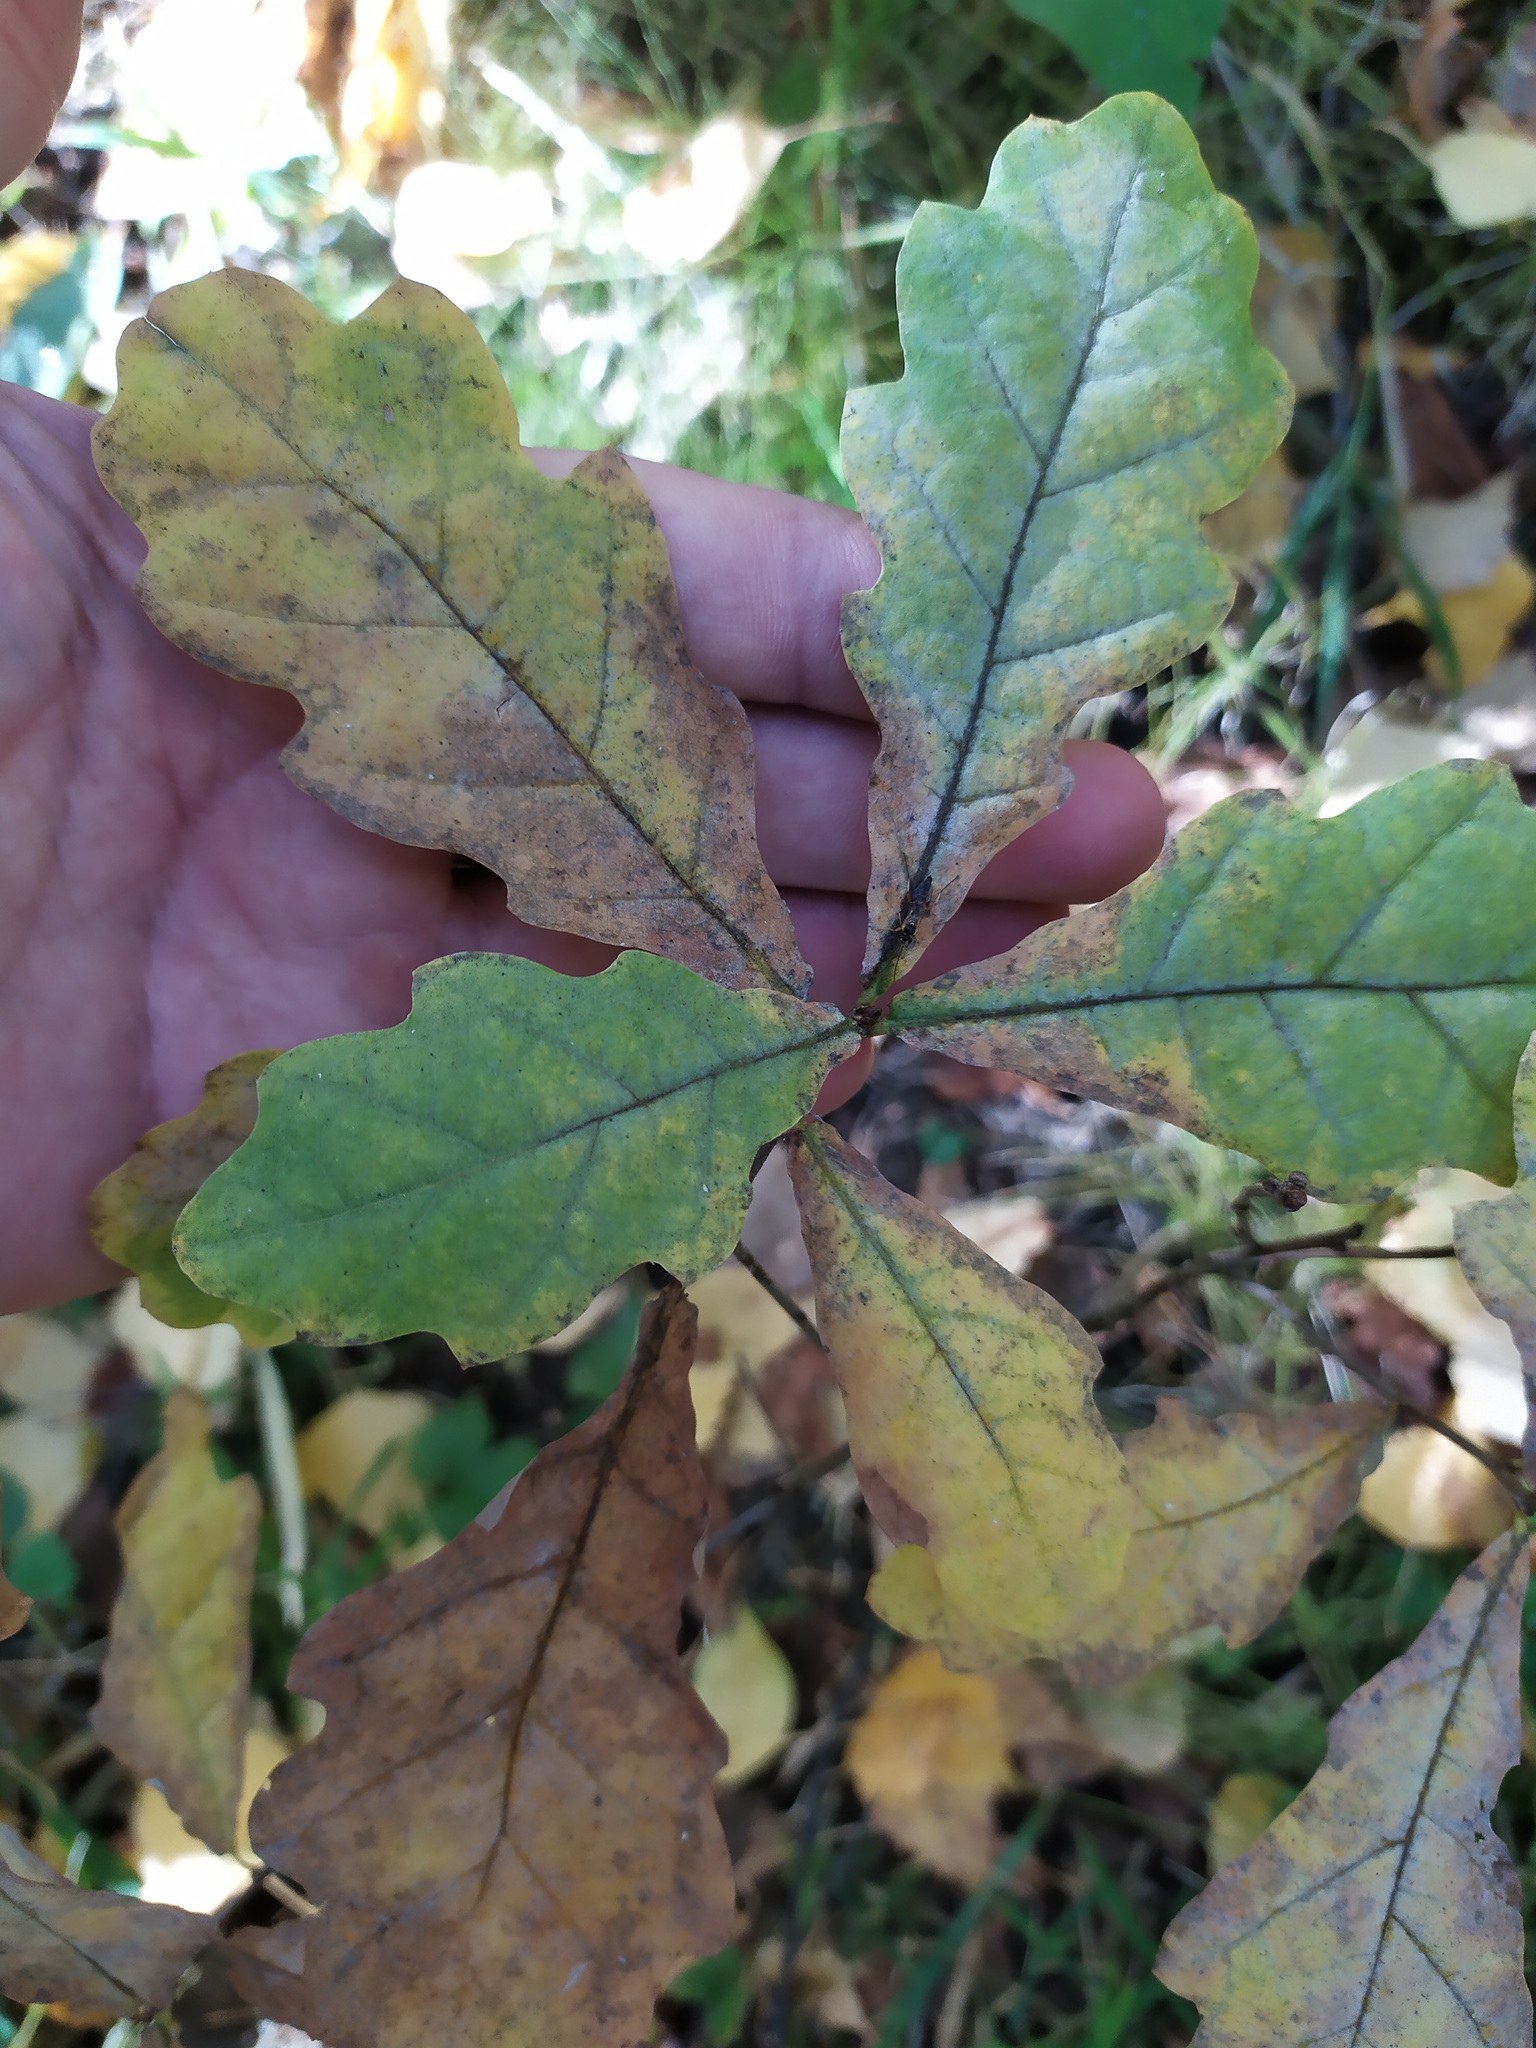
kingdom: Plantae
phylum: Tracheophyta
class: Magnoliopsida
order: Fagales
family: Fagaceae
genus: Quercus
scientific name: Quercus robur
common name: Pedunculate oak
